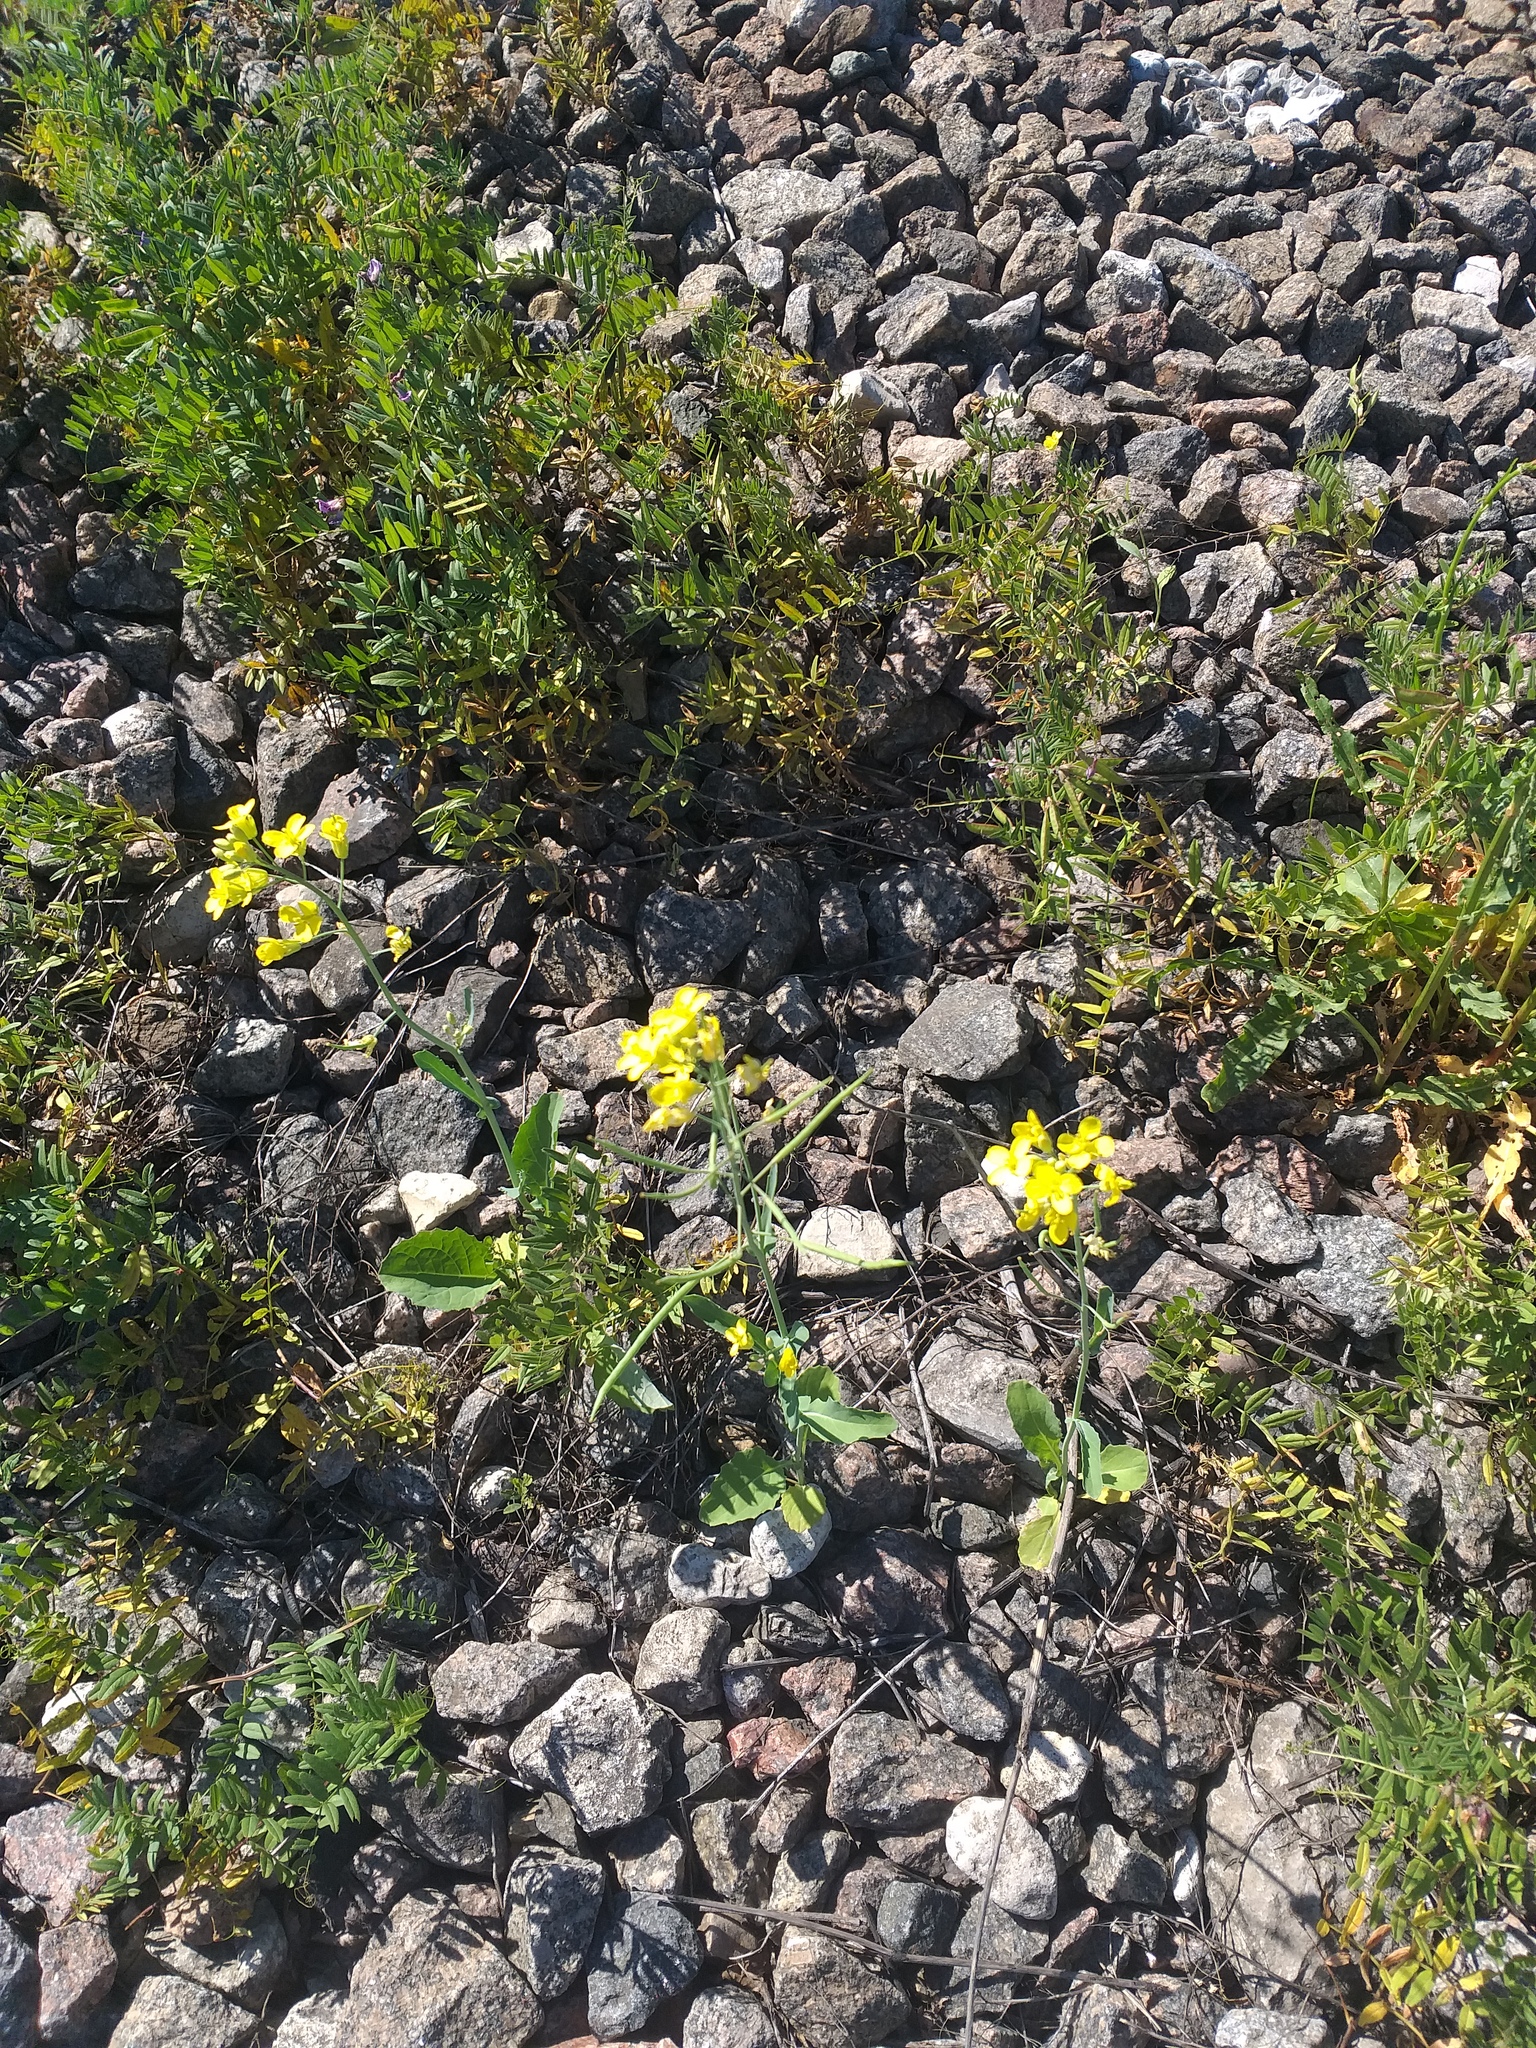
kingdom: Plantae
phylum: Tracheophyta
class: Magnoliopsida
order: Brassicales
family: Brassicaceae
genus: Brassica
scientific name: Brassica napus
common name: Rape
